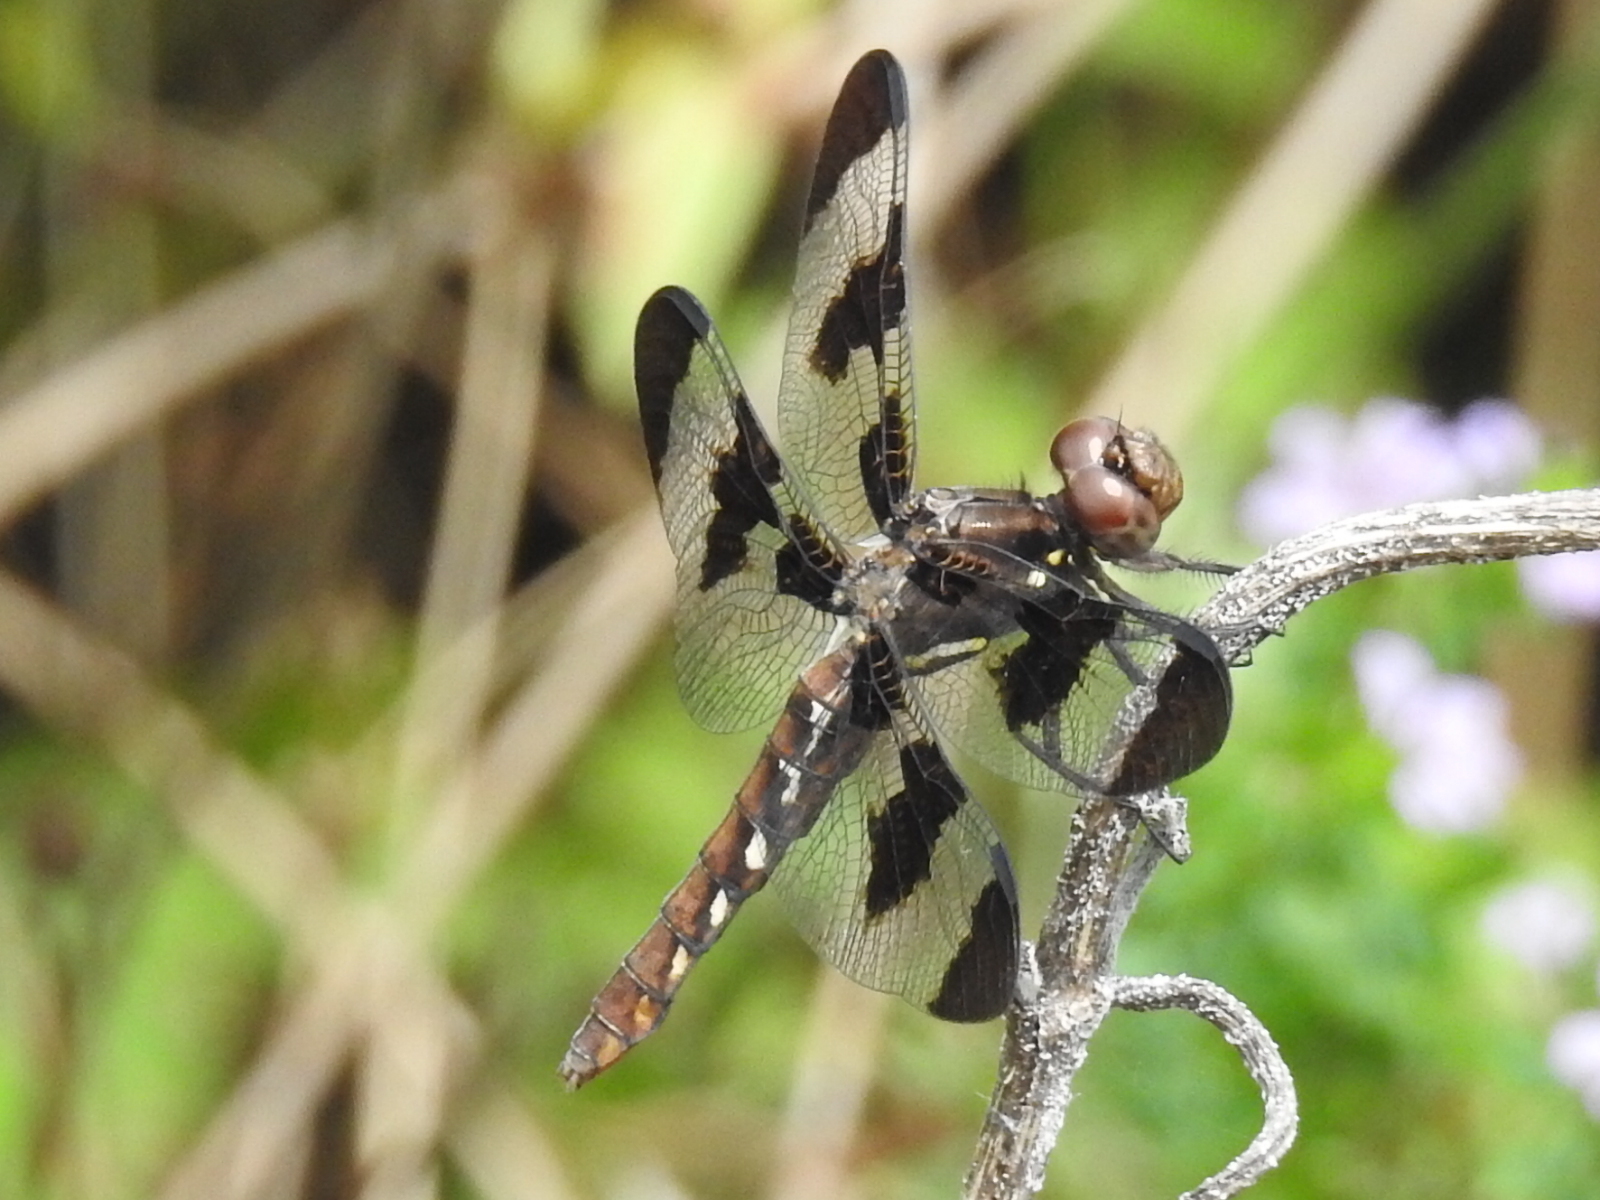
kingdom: Animalia
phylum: Arthropoda
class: Insecta
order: Odonata
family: Libellulidae
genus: Plathemis
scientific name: Plathemis lydia
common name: Common whitetail
